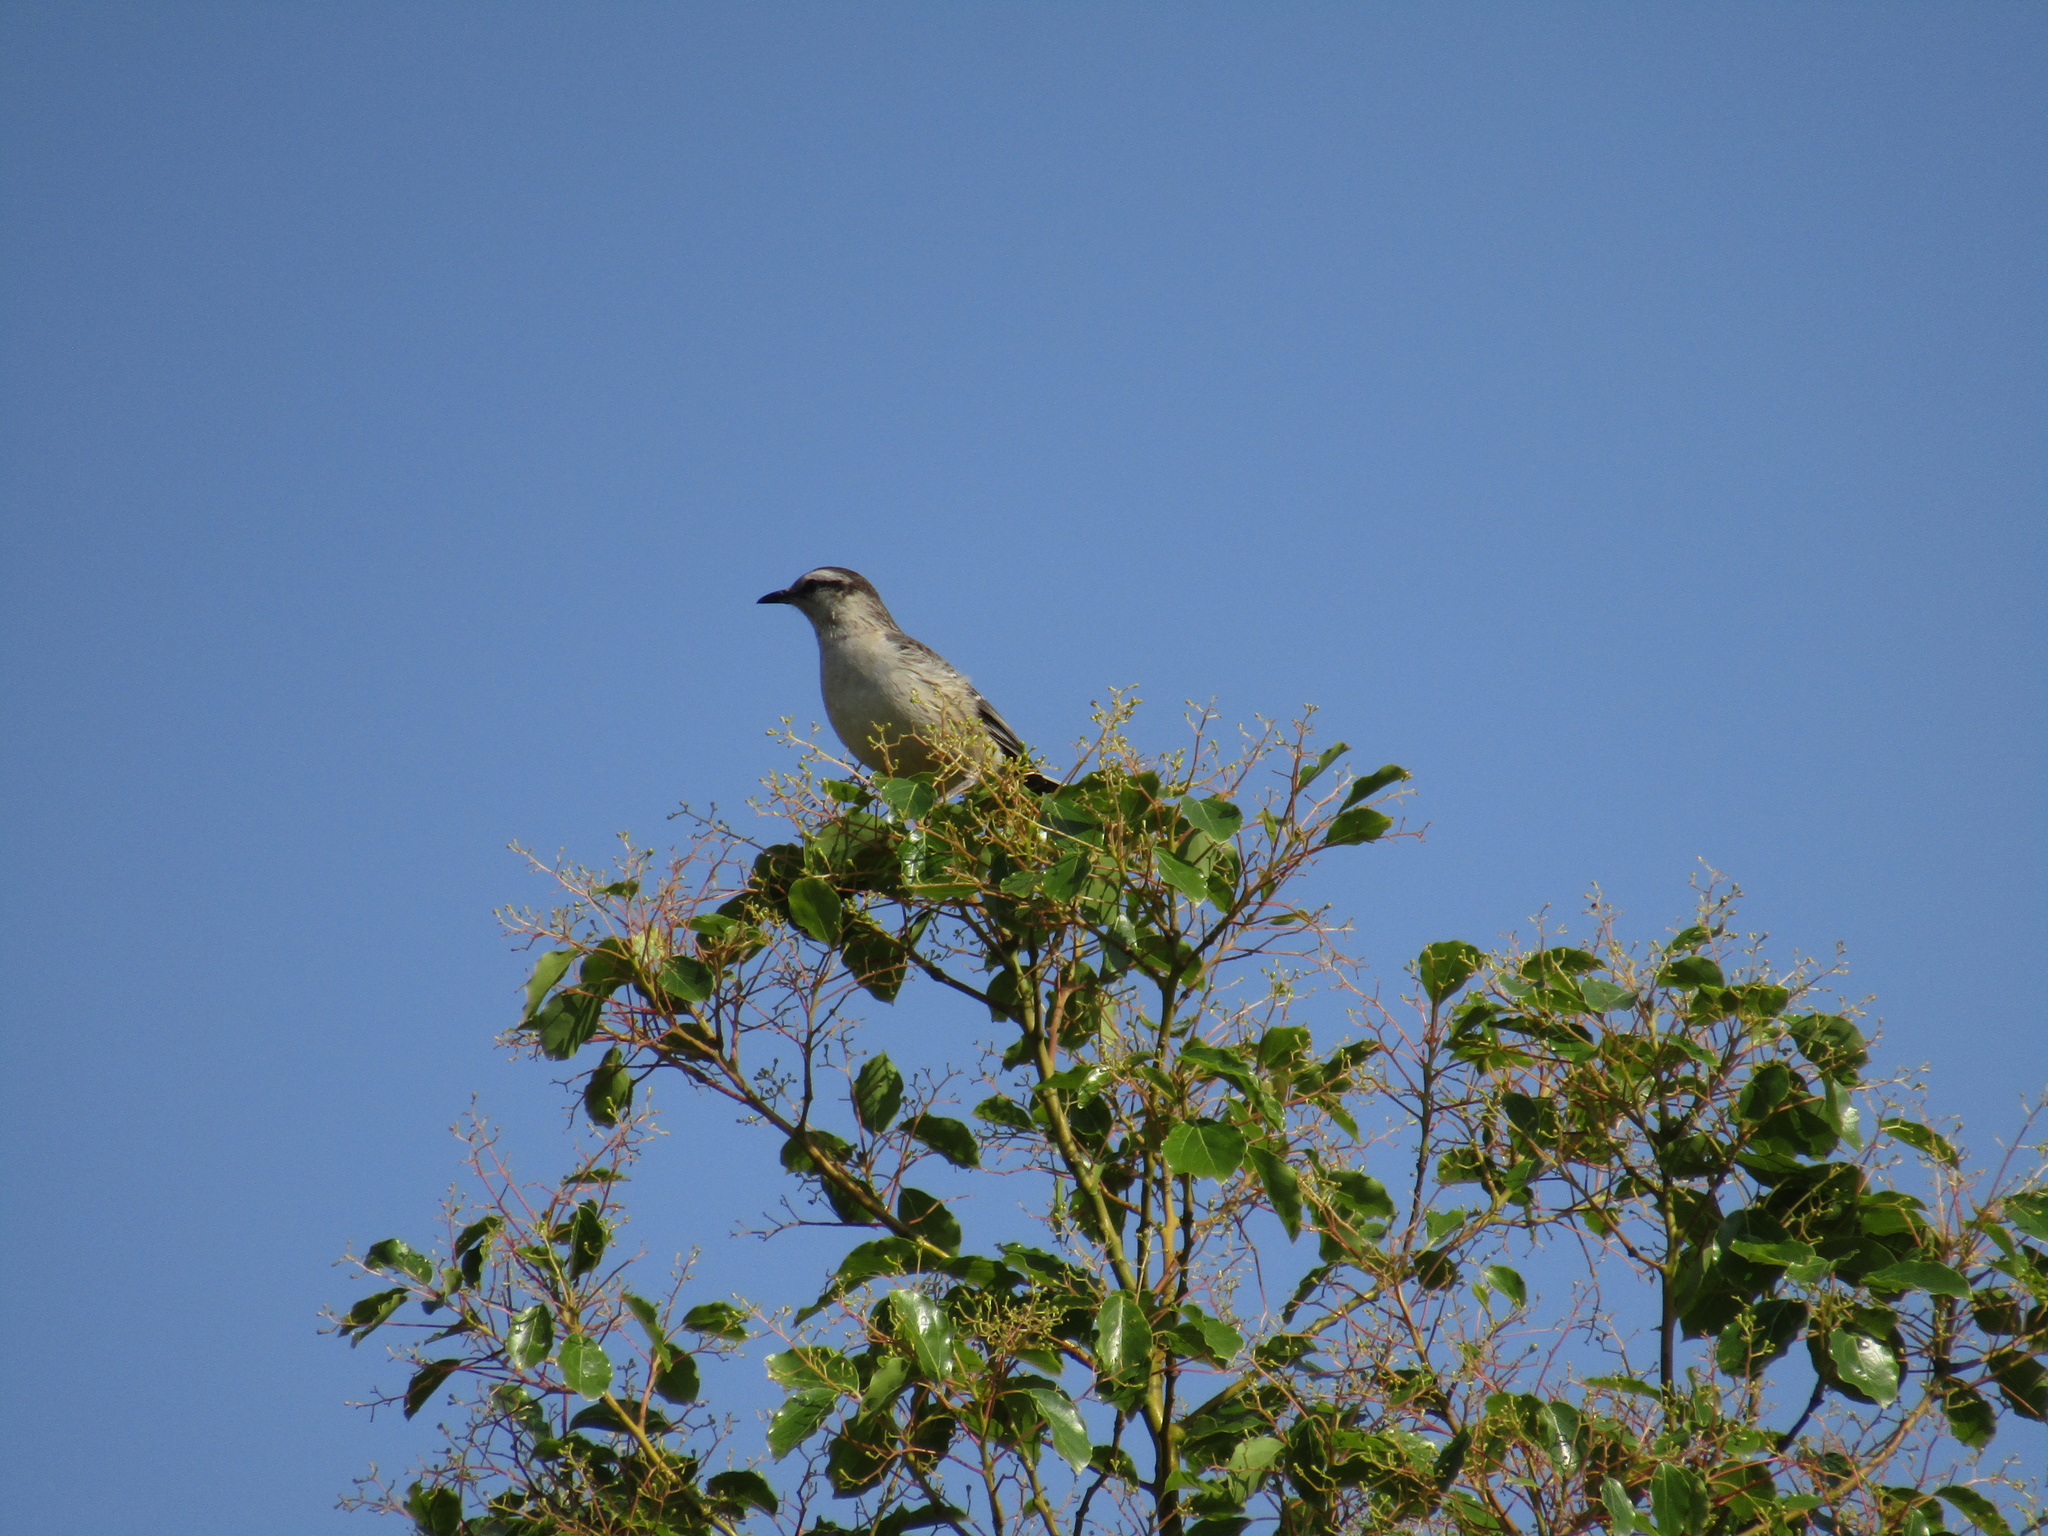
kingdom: Animalia
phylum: Chordata
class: Aves
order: Passeriformes
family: Mimidae
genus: Mimus
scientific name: Mimus saturninus
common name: Chalk-browed mockingbird
